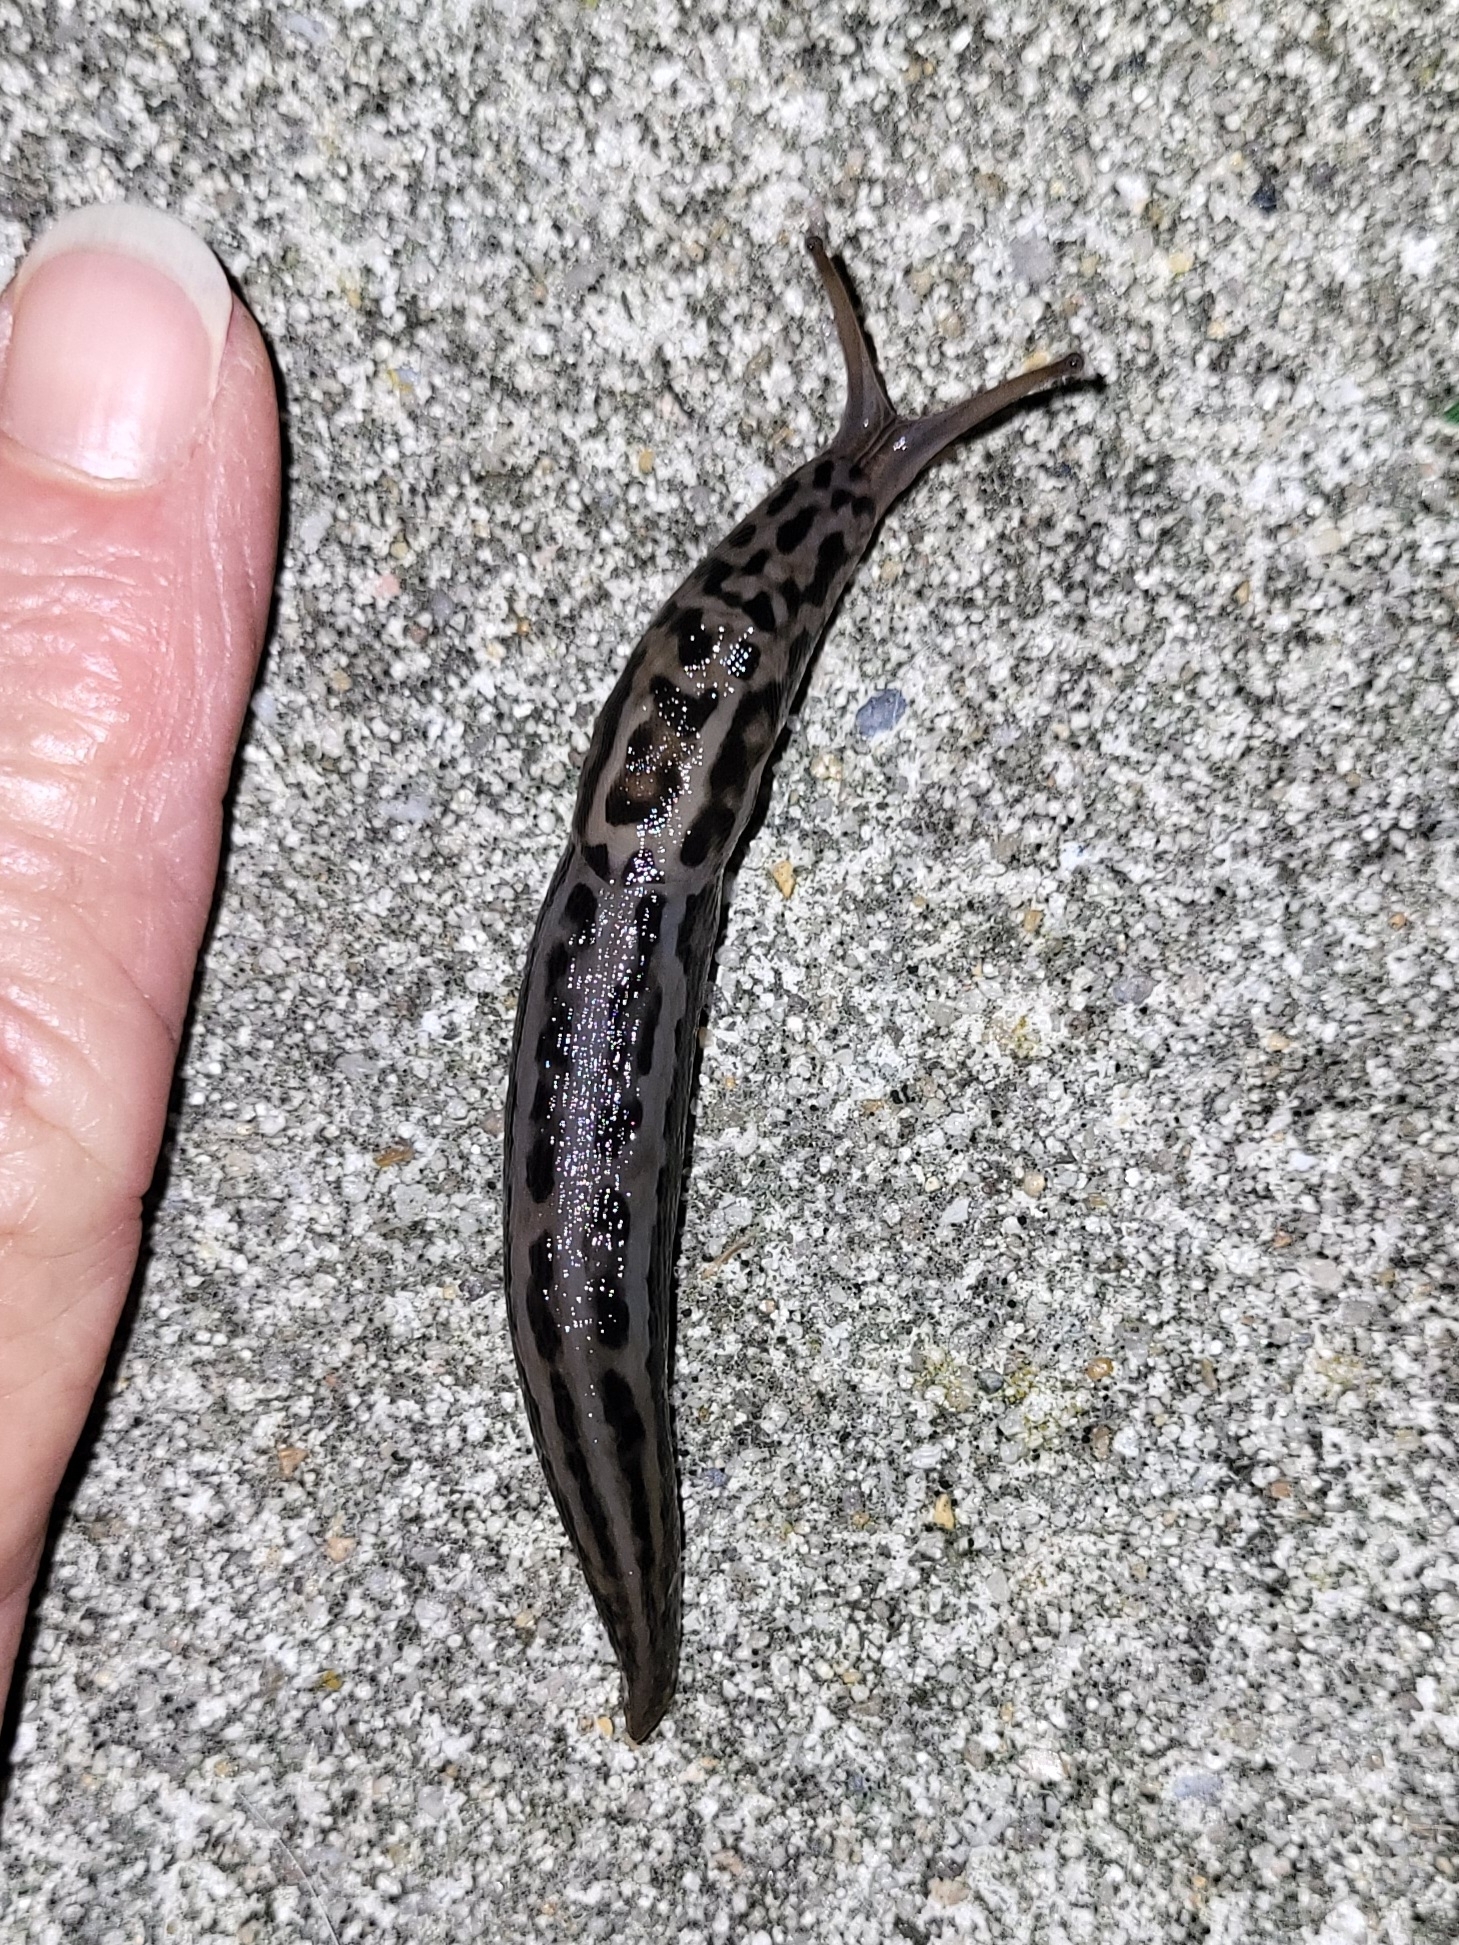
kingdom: Animalia
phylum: Mollusca
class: Gastropoda
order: Stylommatophora
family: Limacidae
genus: Limax
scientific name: Limax maximus
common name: Great grey slug
